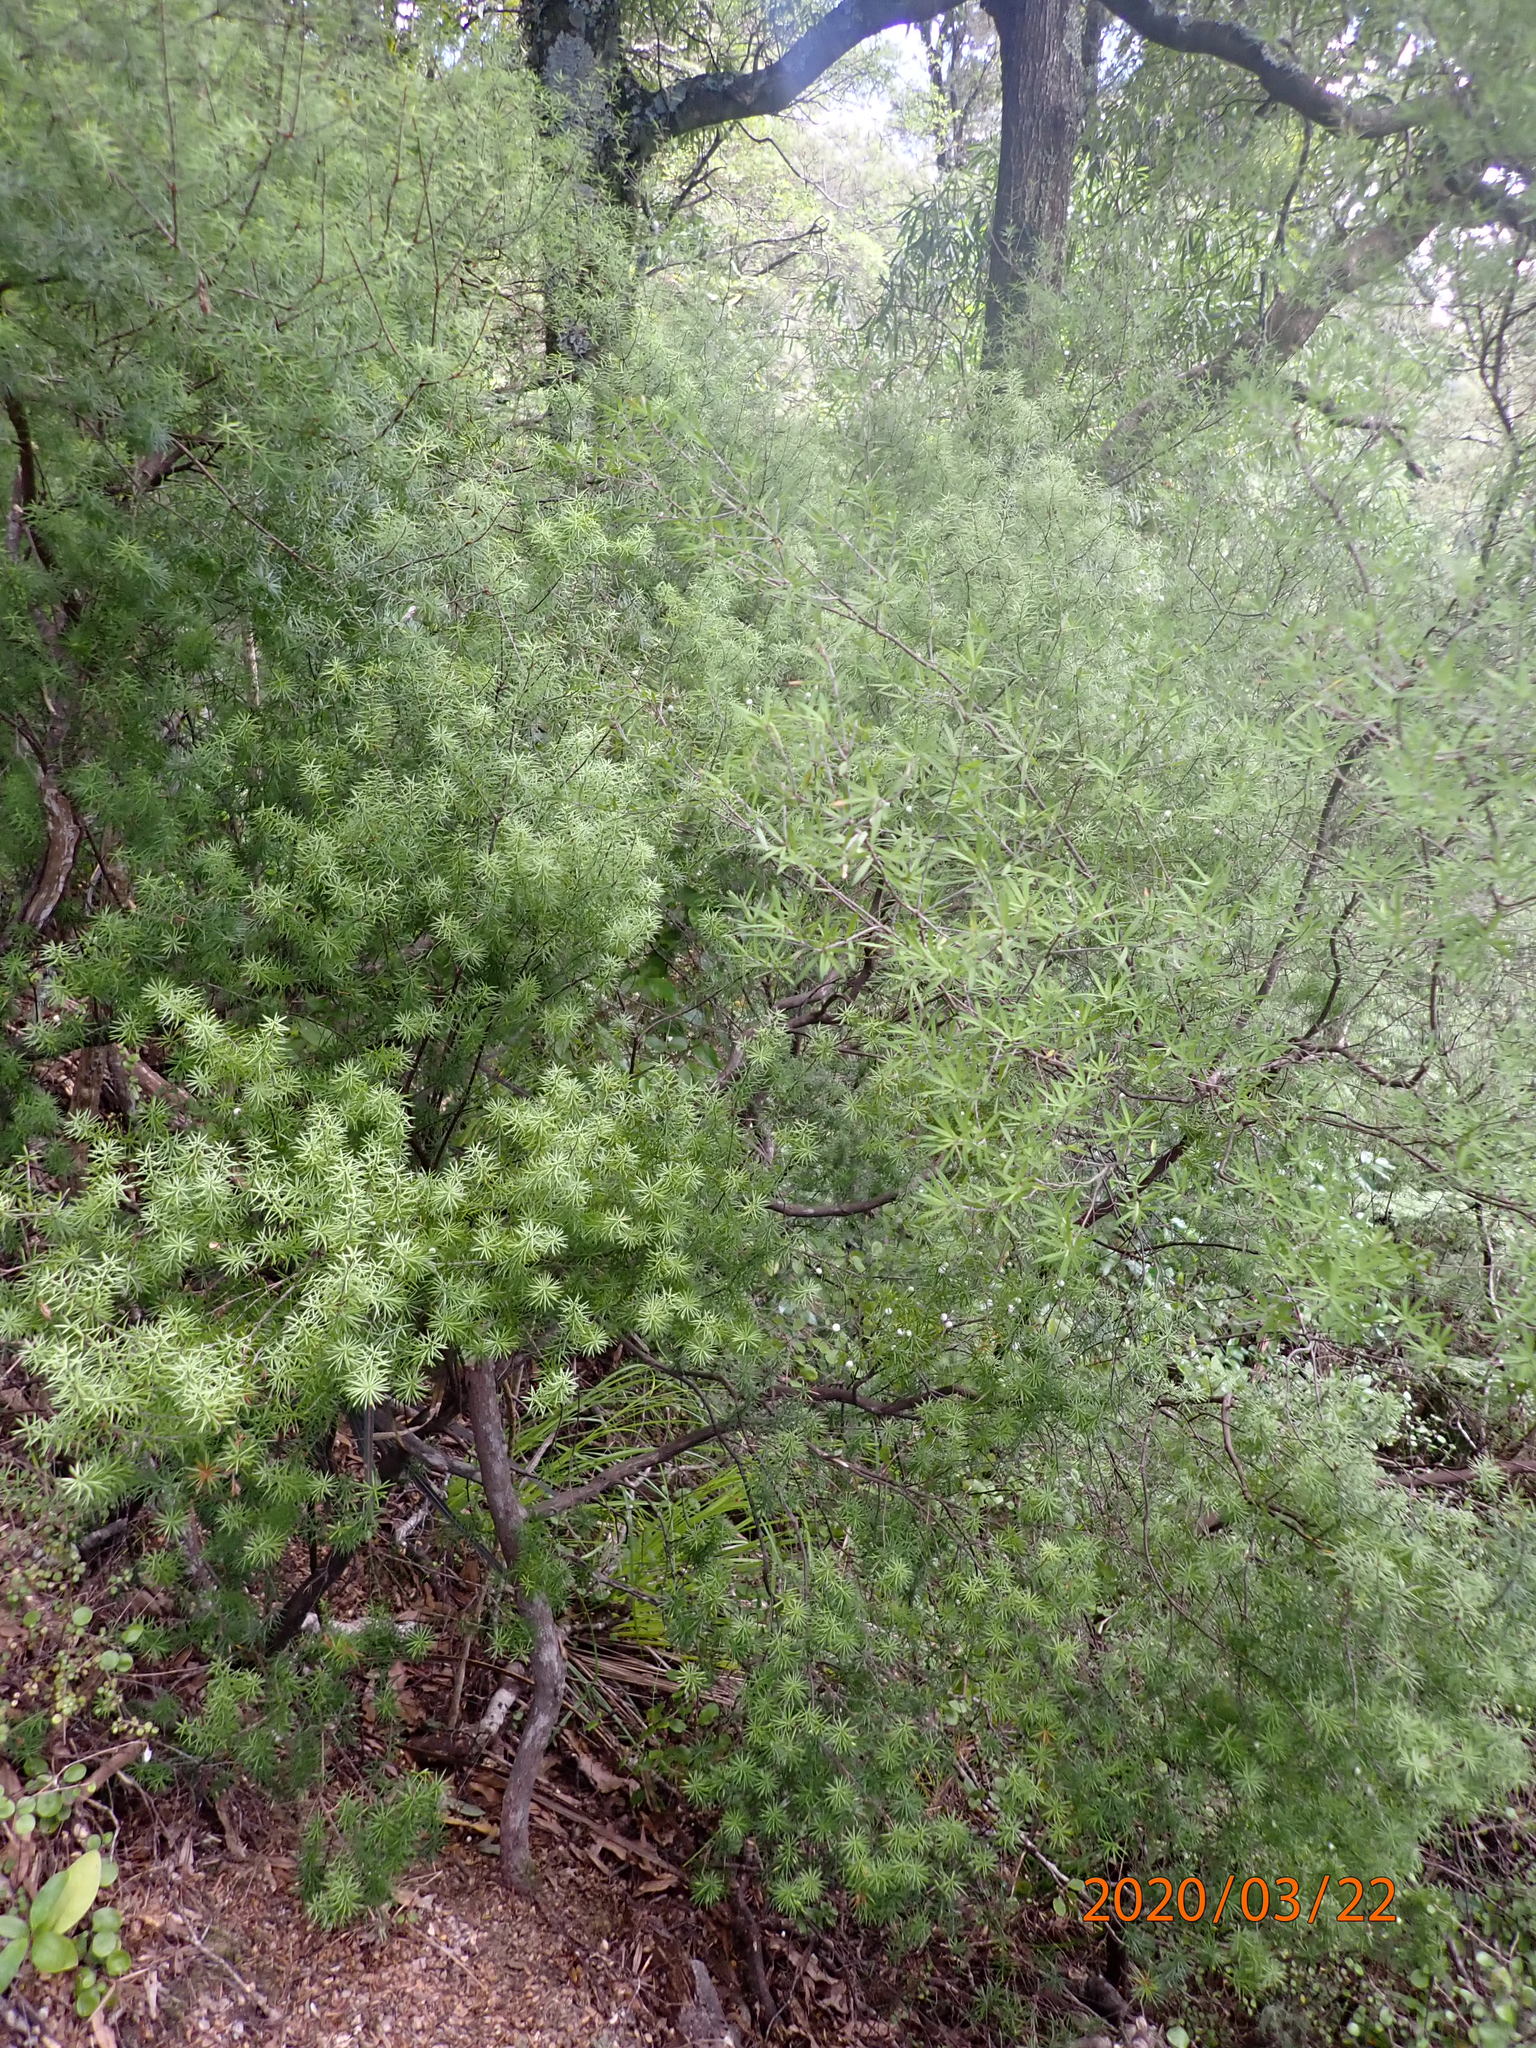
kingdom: Plantae
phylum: Tracheophyta
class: Magnoliopsida
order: Ericales
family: Ericaceae
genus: Leptecophylla
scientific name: Leptecophylla juniperina
